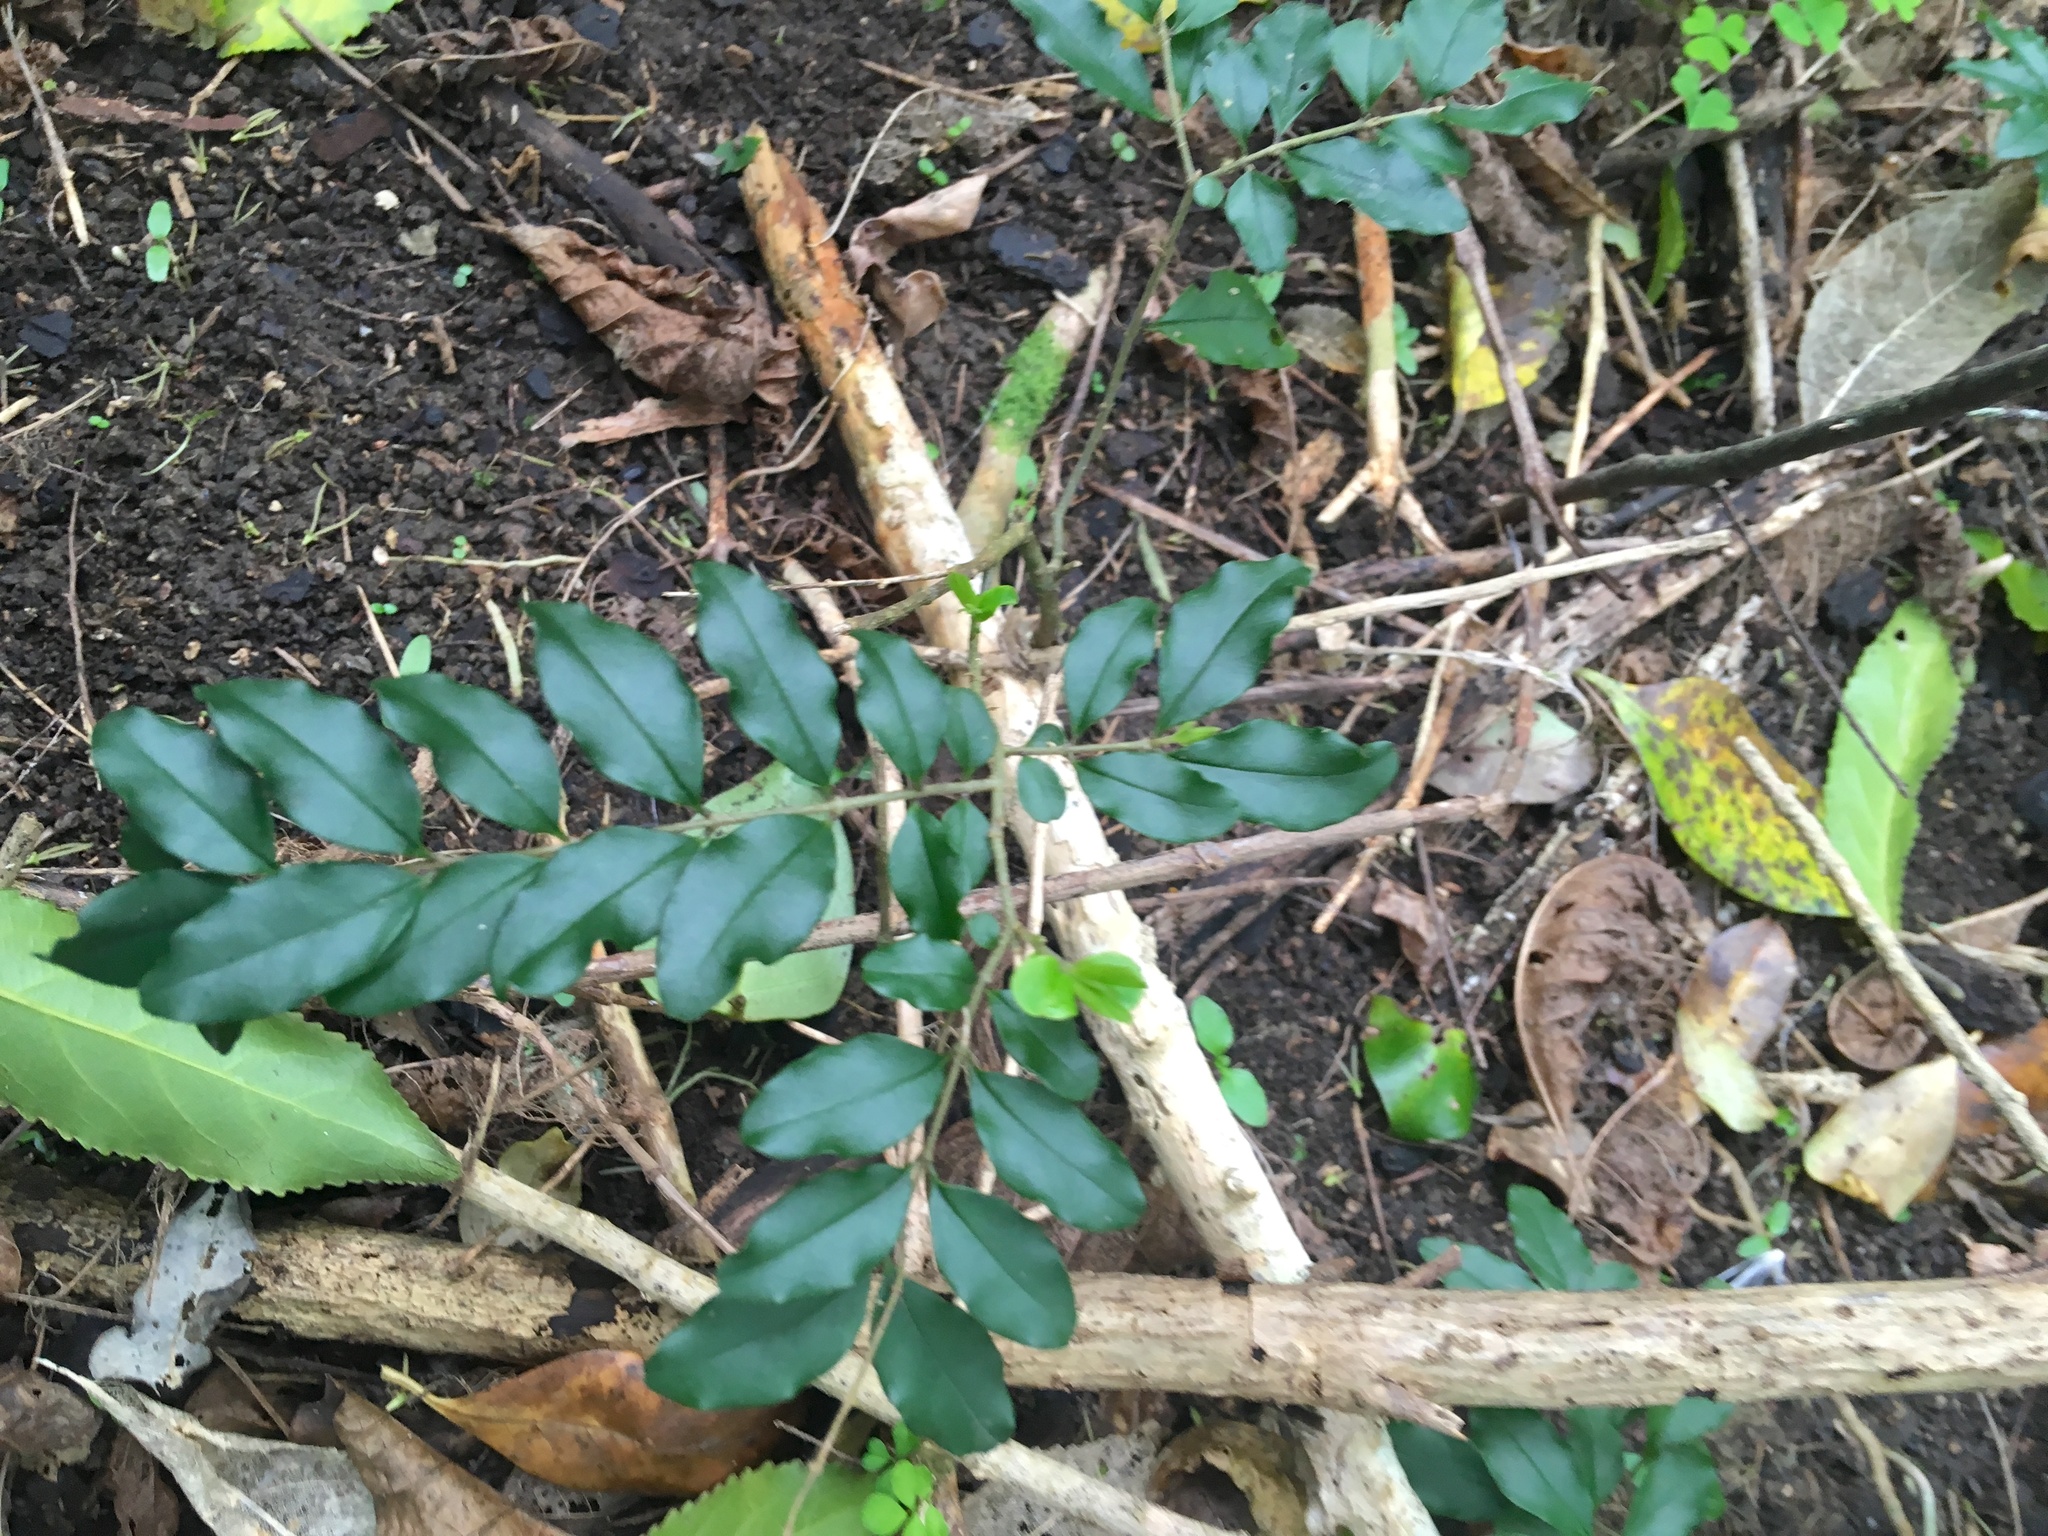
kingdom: Plantae
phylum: Tracheophyta
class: Magnoliopsida
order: Lamiales
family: Oleaceae
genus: Ligustrum
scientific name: Ligustrum sinense
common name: Chinese privet
